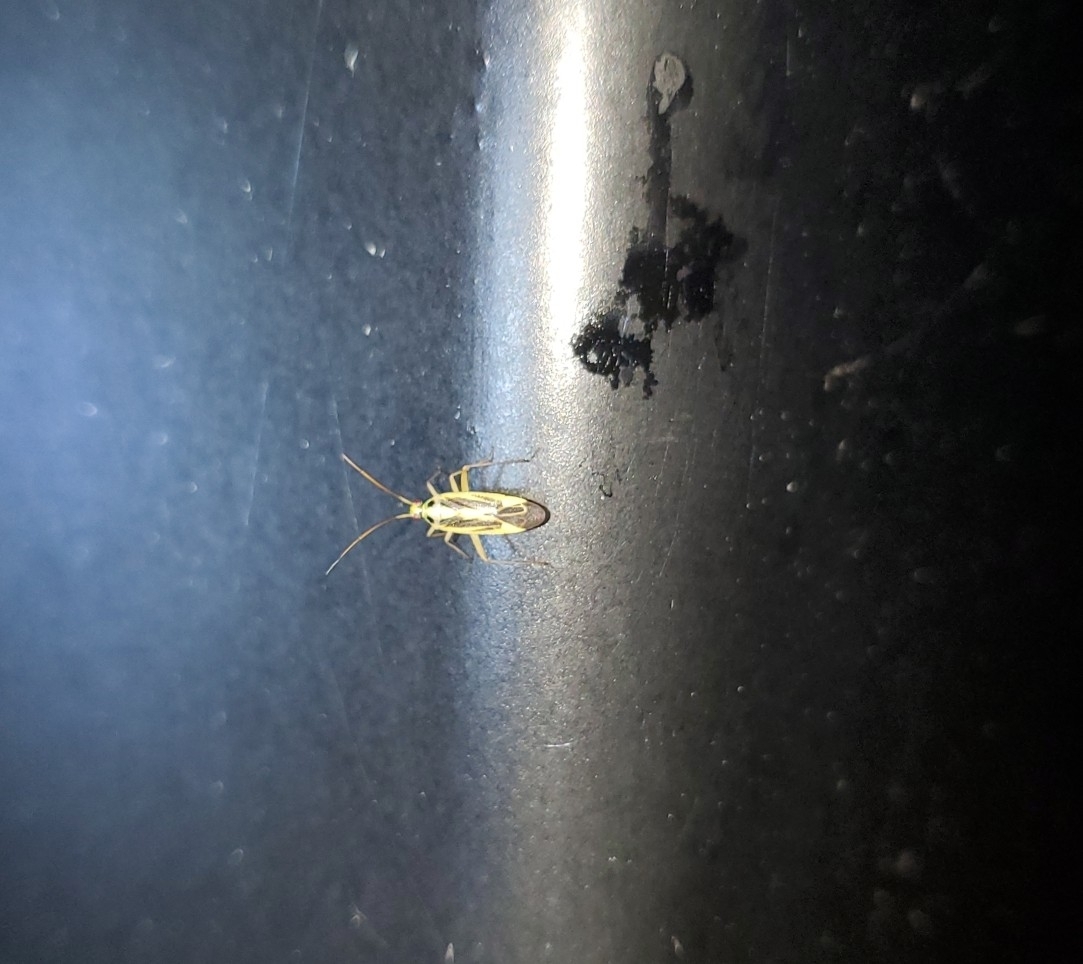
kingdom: Animalia
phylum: Arthropoda
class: Insecta
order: Hemiptera
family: Miridae
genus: Stenotus
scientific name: Stenotus binotatus
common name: Plant bug
